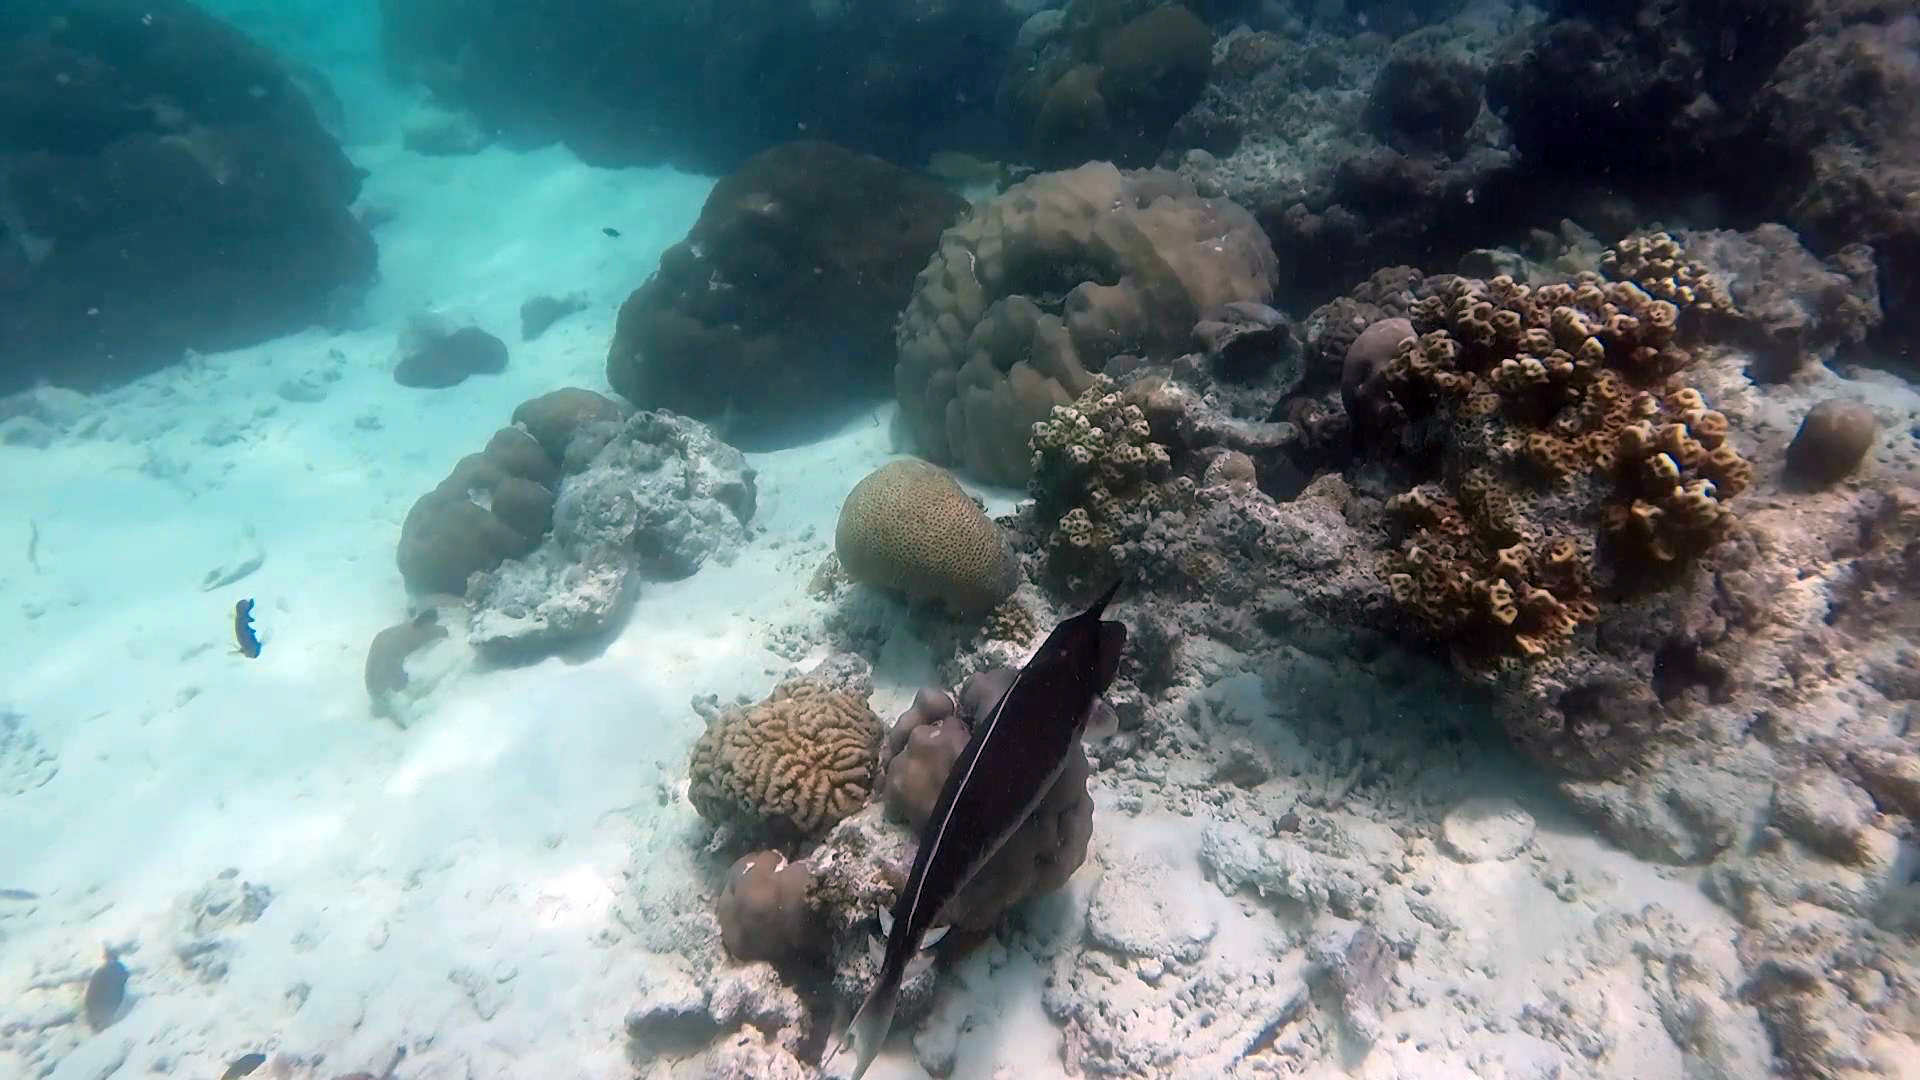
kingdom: Animalia
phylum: Chordata
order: Perciformes
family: Acanthuridae
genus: Naso
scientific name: Naso brachycentron
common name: Humpback unicornfish
